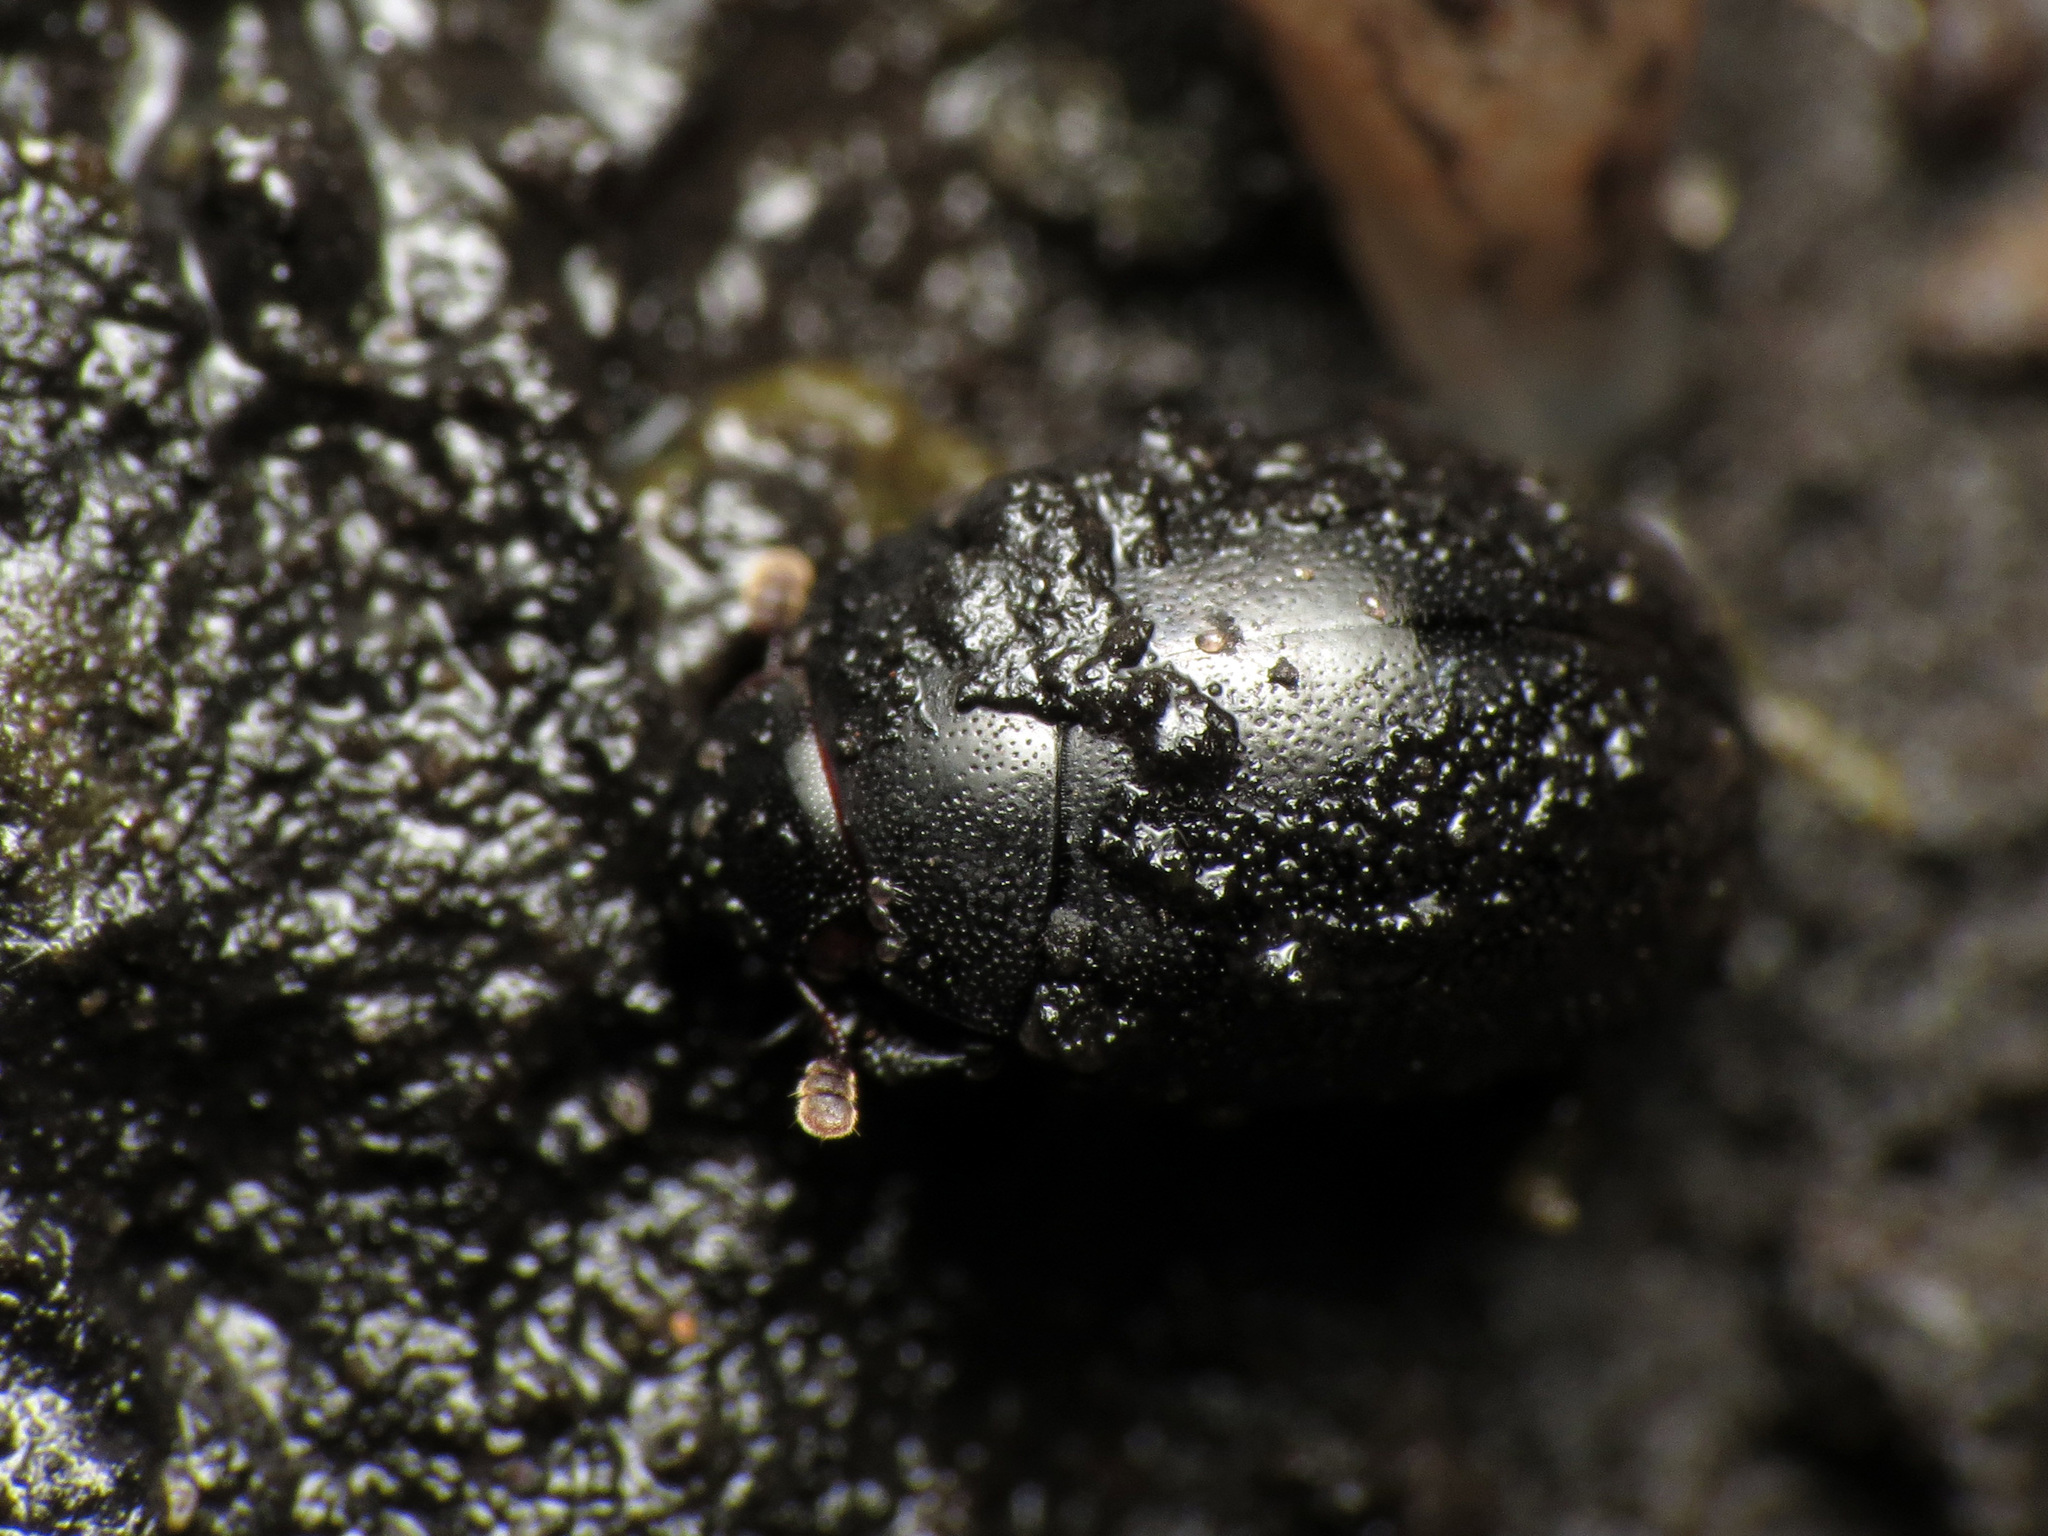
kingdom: Animalia
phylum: Arthropoda
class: Insecta
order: Coleoptera
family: Nosodendridae
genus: Nosodendron
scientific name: Nosodendron unicolor
